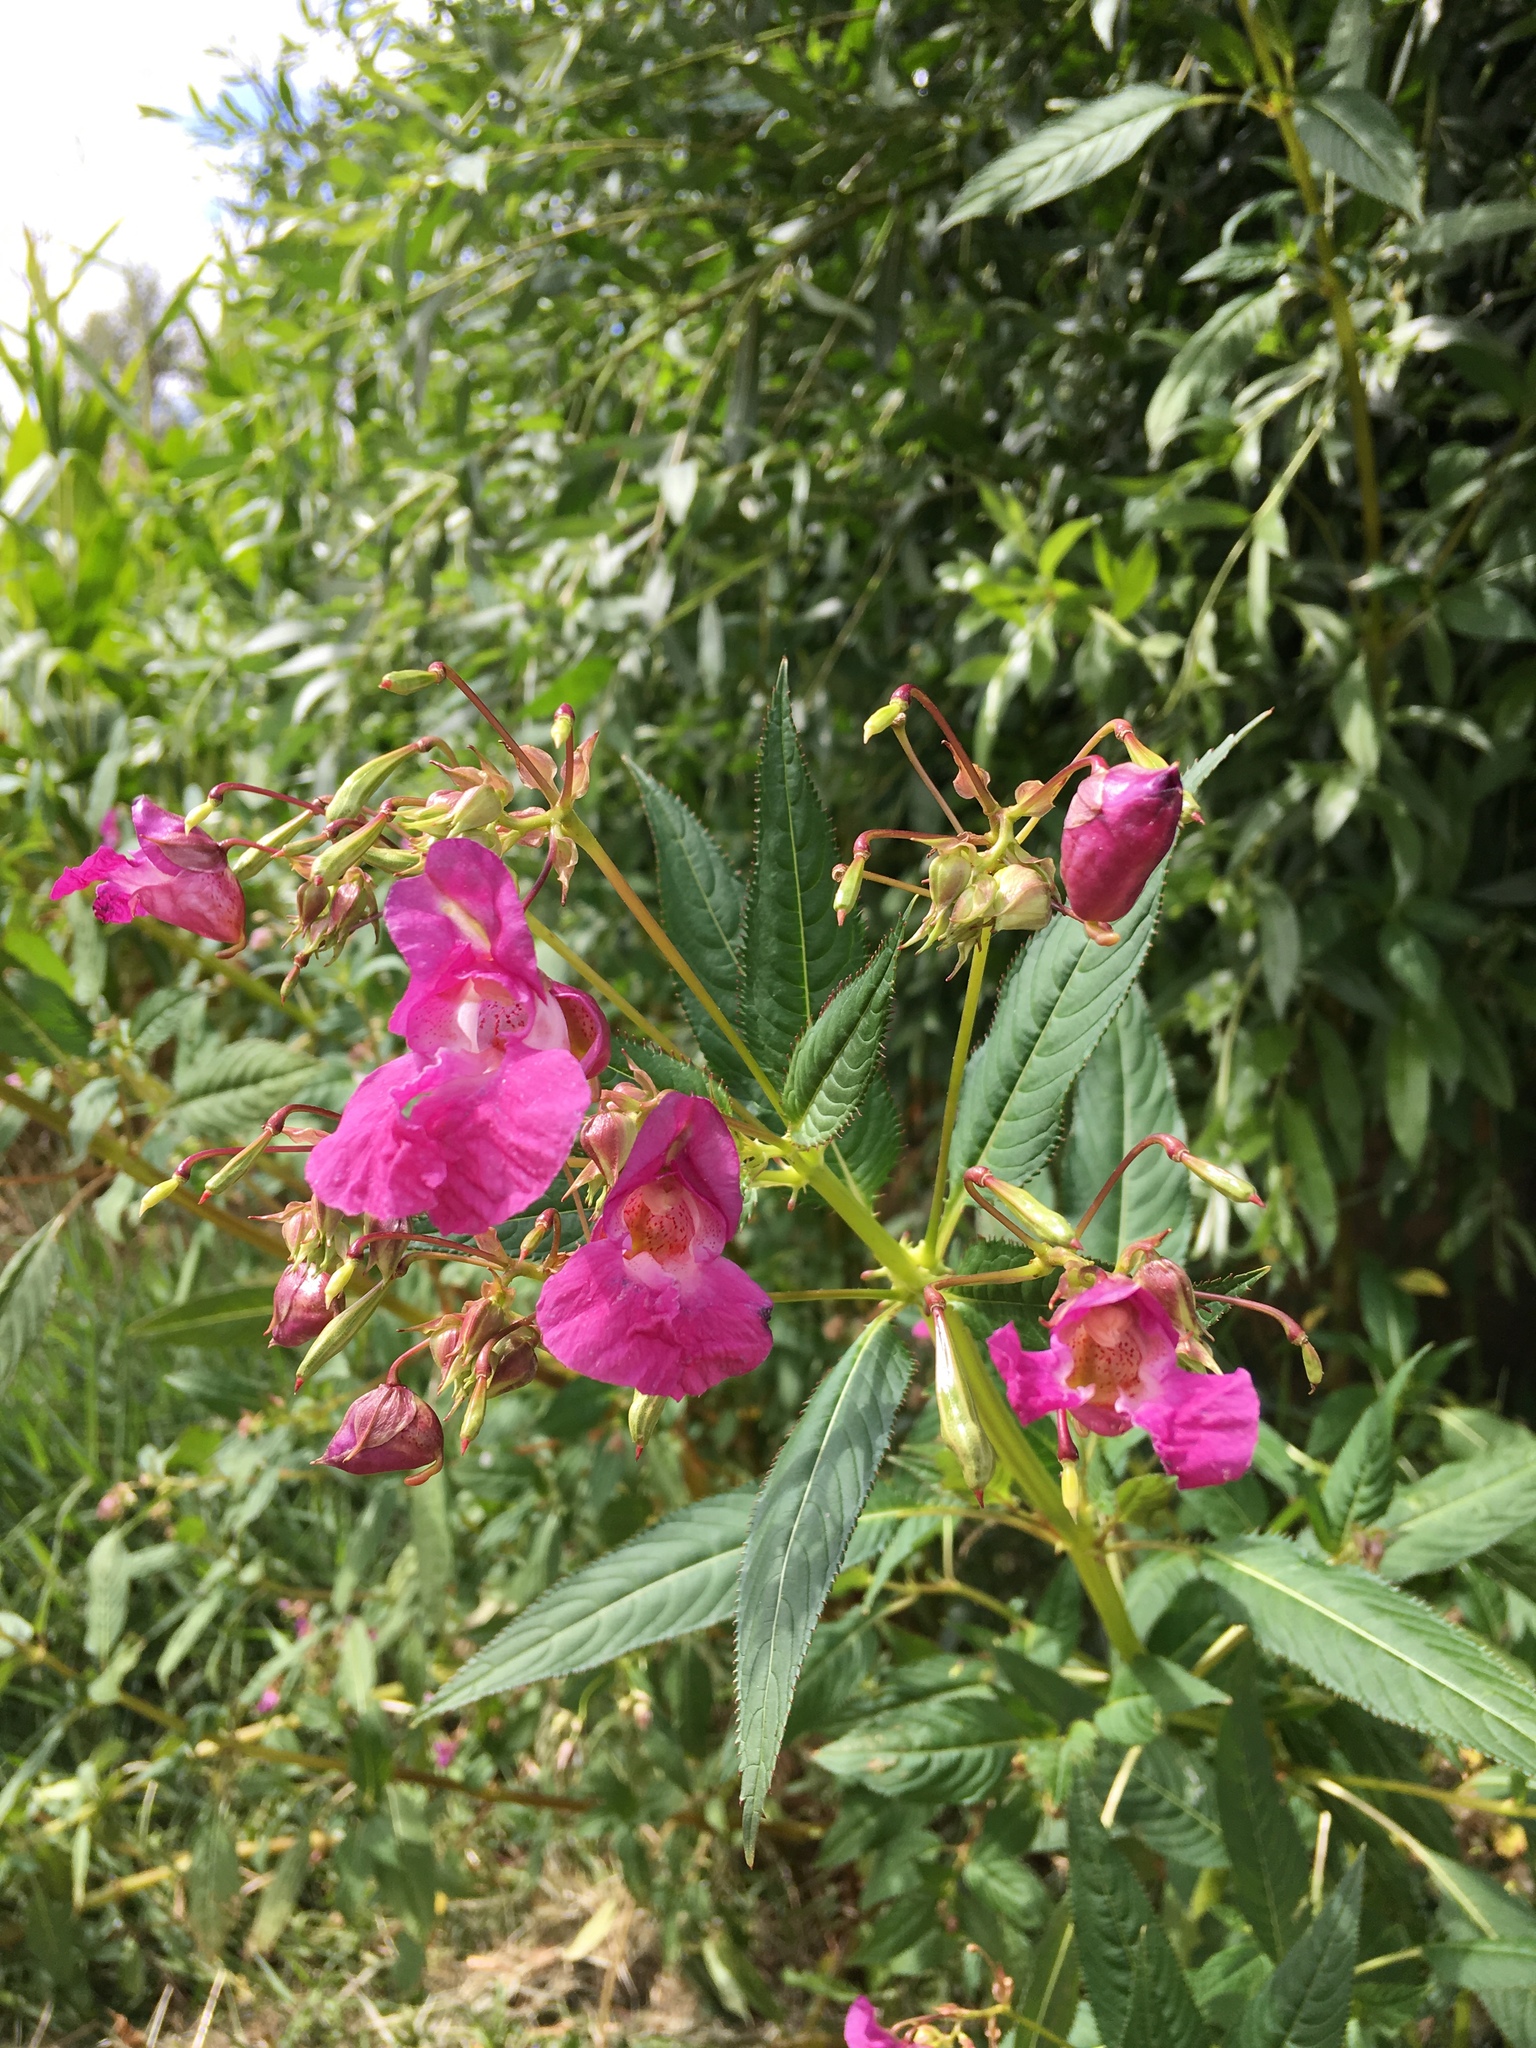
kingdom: Plantae
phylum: Tracheophyta
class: Magnoliopsida
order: Ericales
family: Balsaminaceae
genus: Impatiens
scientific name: Impatiens glandulifera
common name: Himalayan balsam
